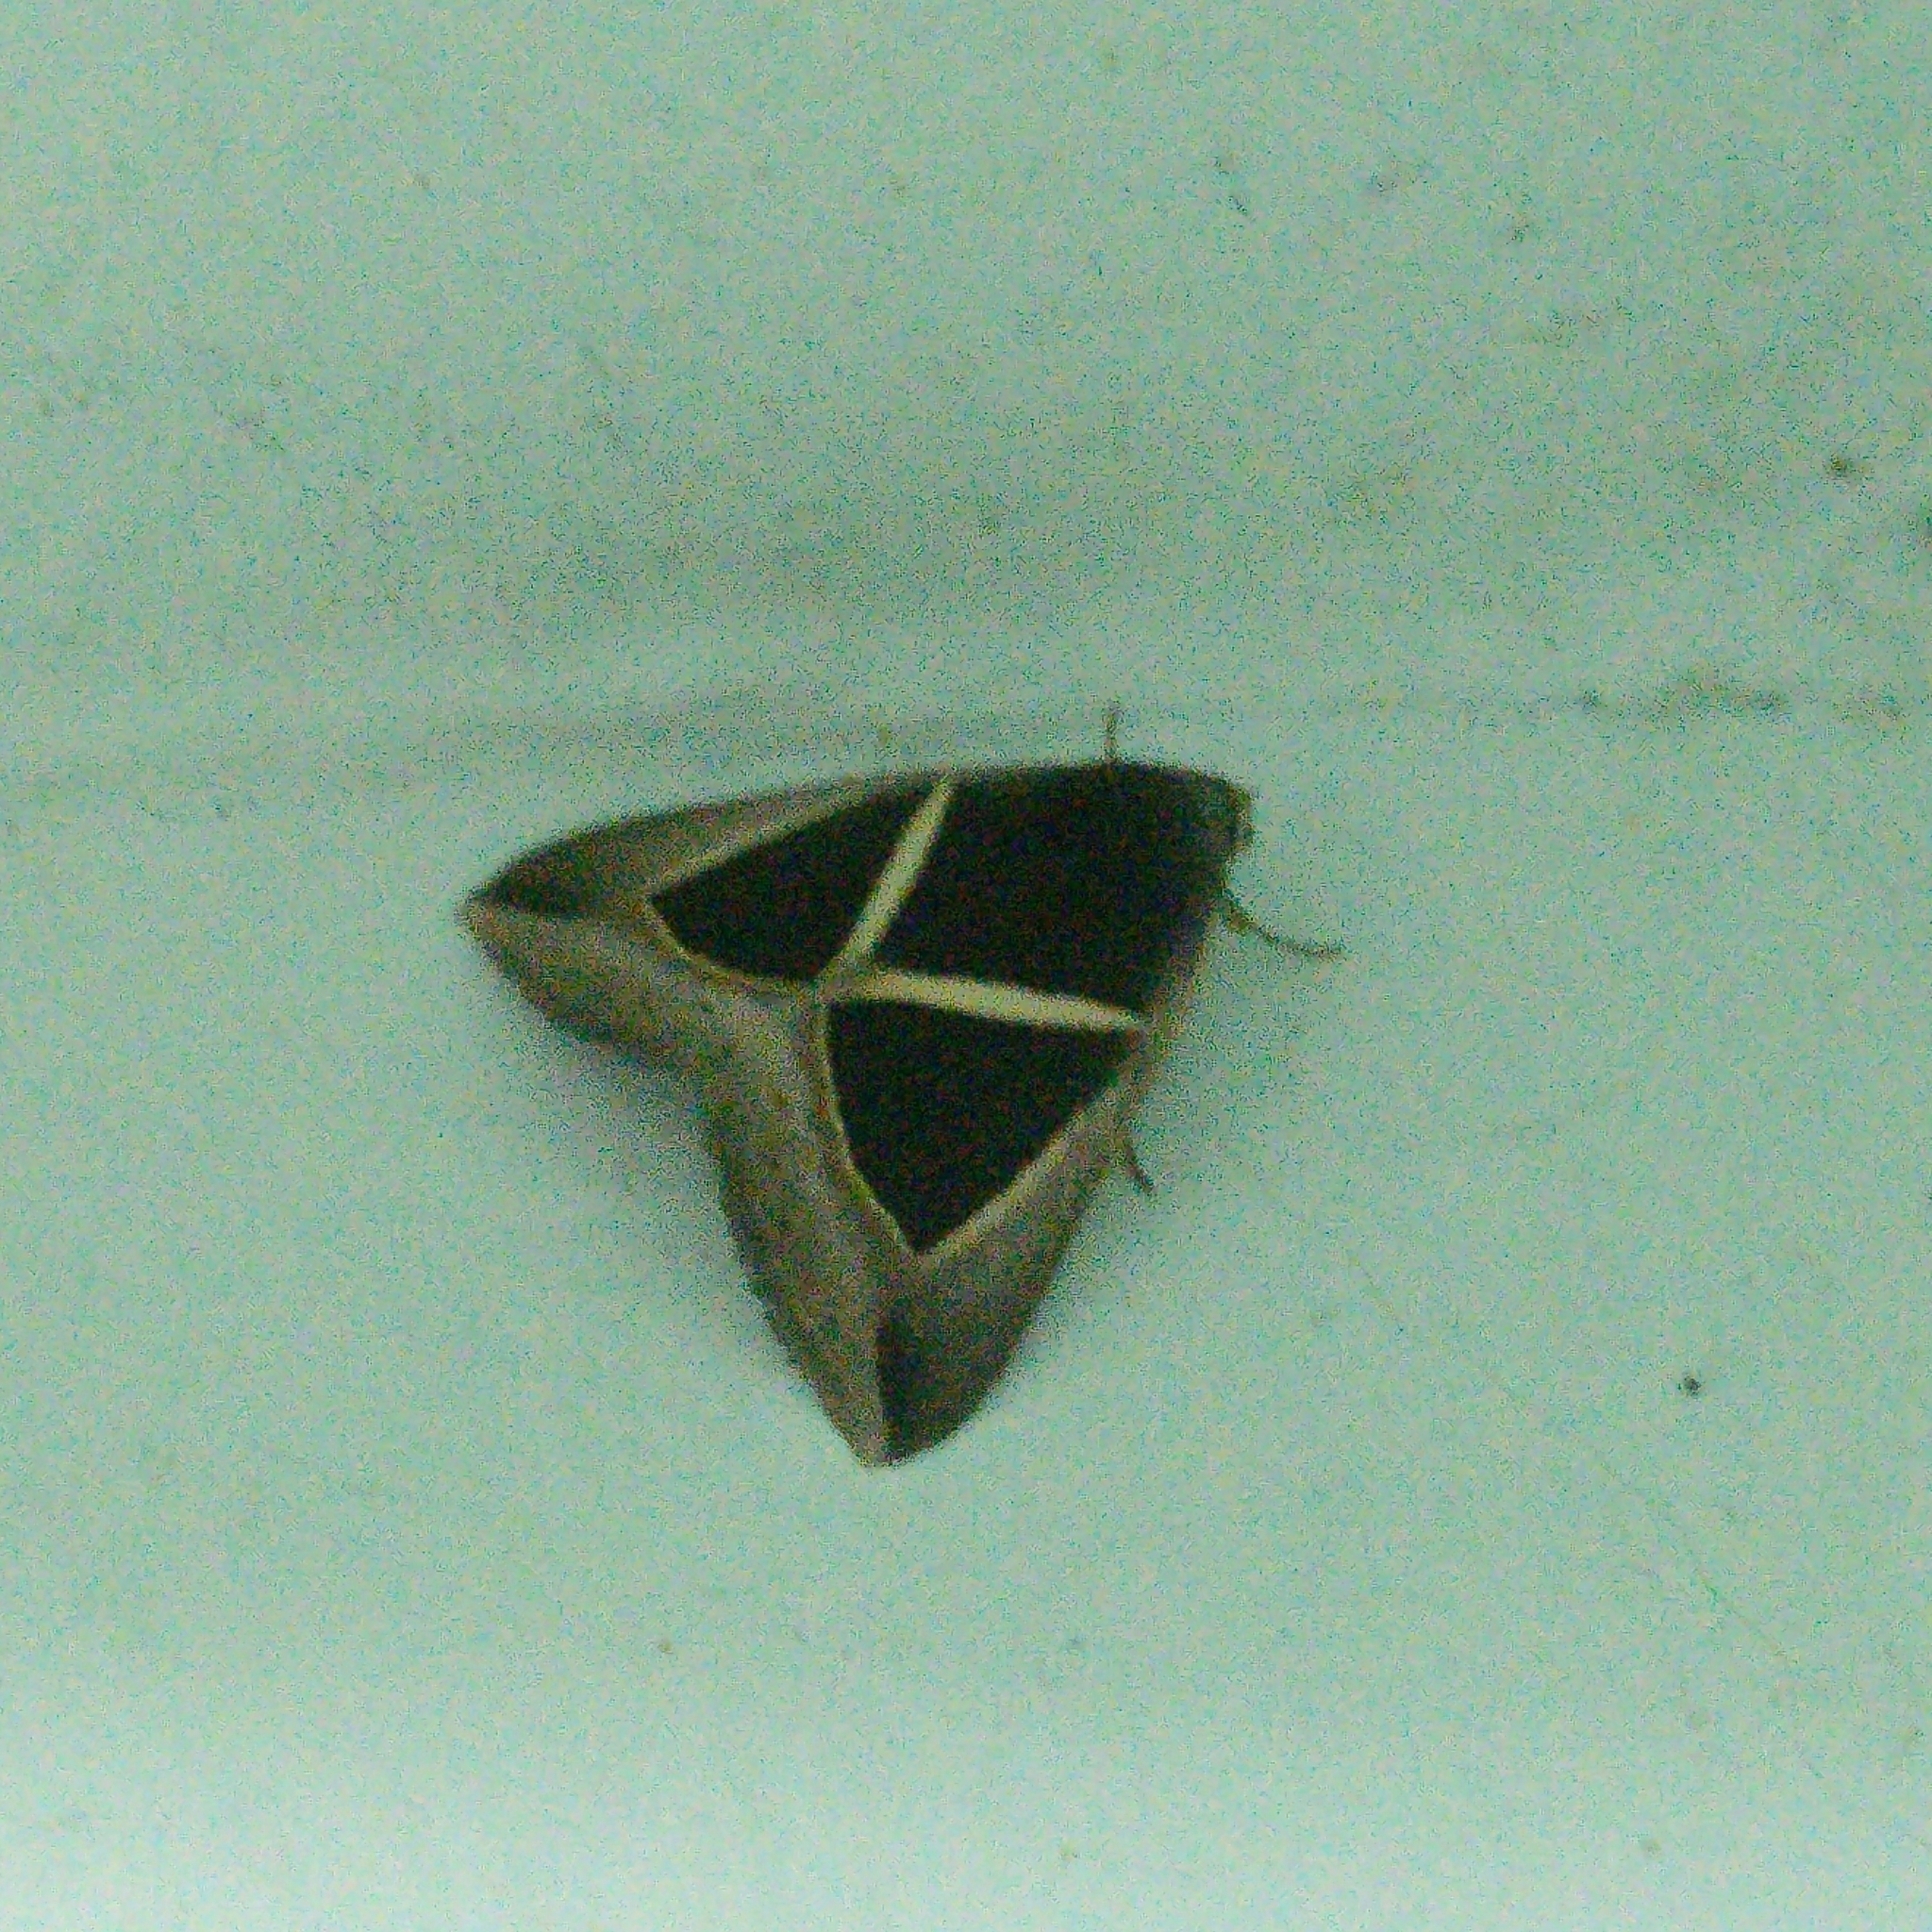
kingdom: Animalia
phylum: Arthropoda
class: Insecta
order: Lepidoptera
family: Erebidae
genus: Chalciope
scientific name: Chalciope mygdon
